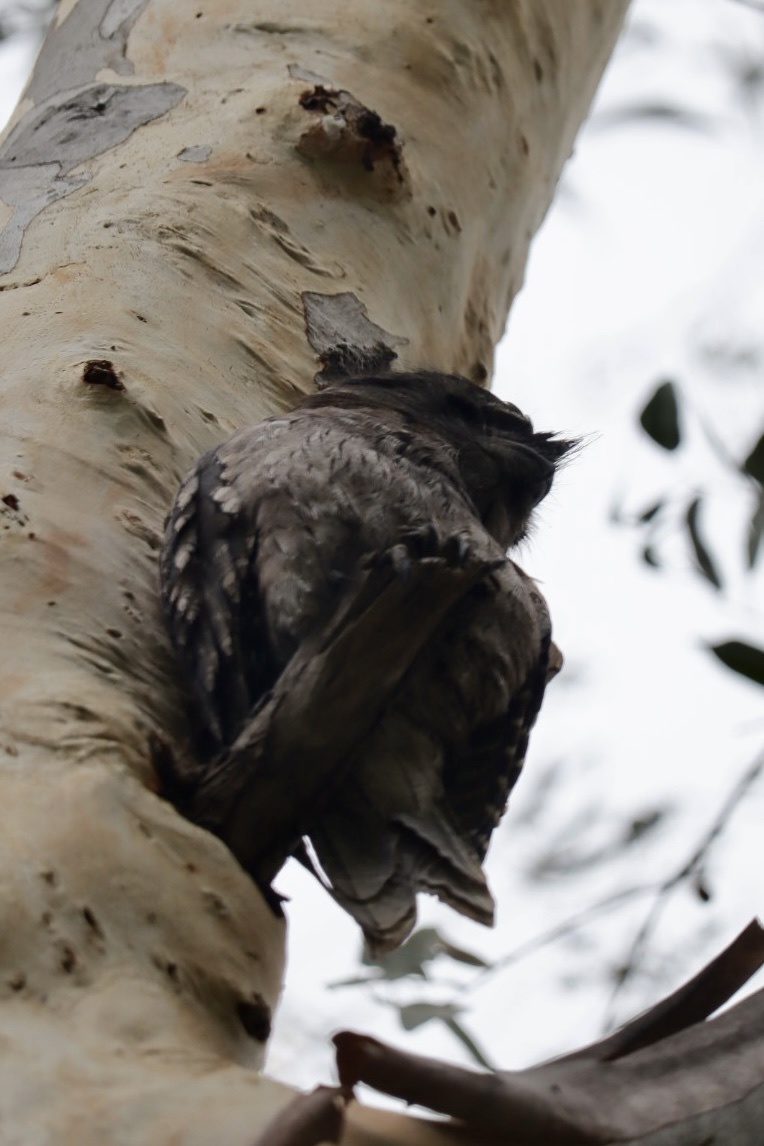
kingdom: Animalia
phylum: Chordata
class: Aves
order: Caprimulgiformes
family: Podargidae
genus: Podargus
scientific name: Podargus strigoides
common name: Tawny frogmouth
